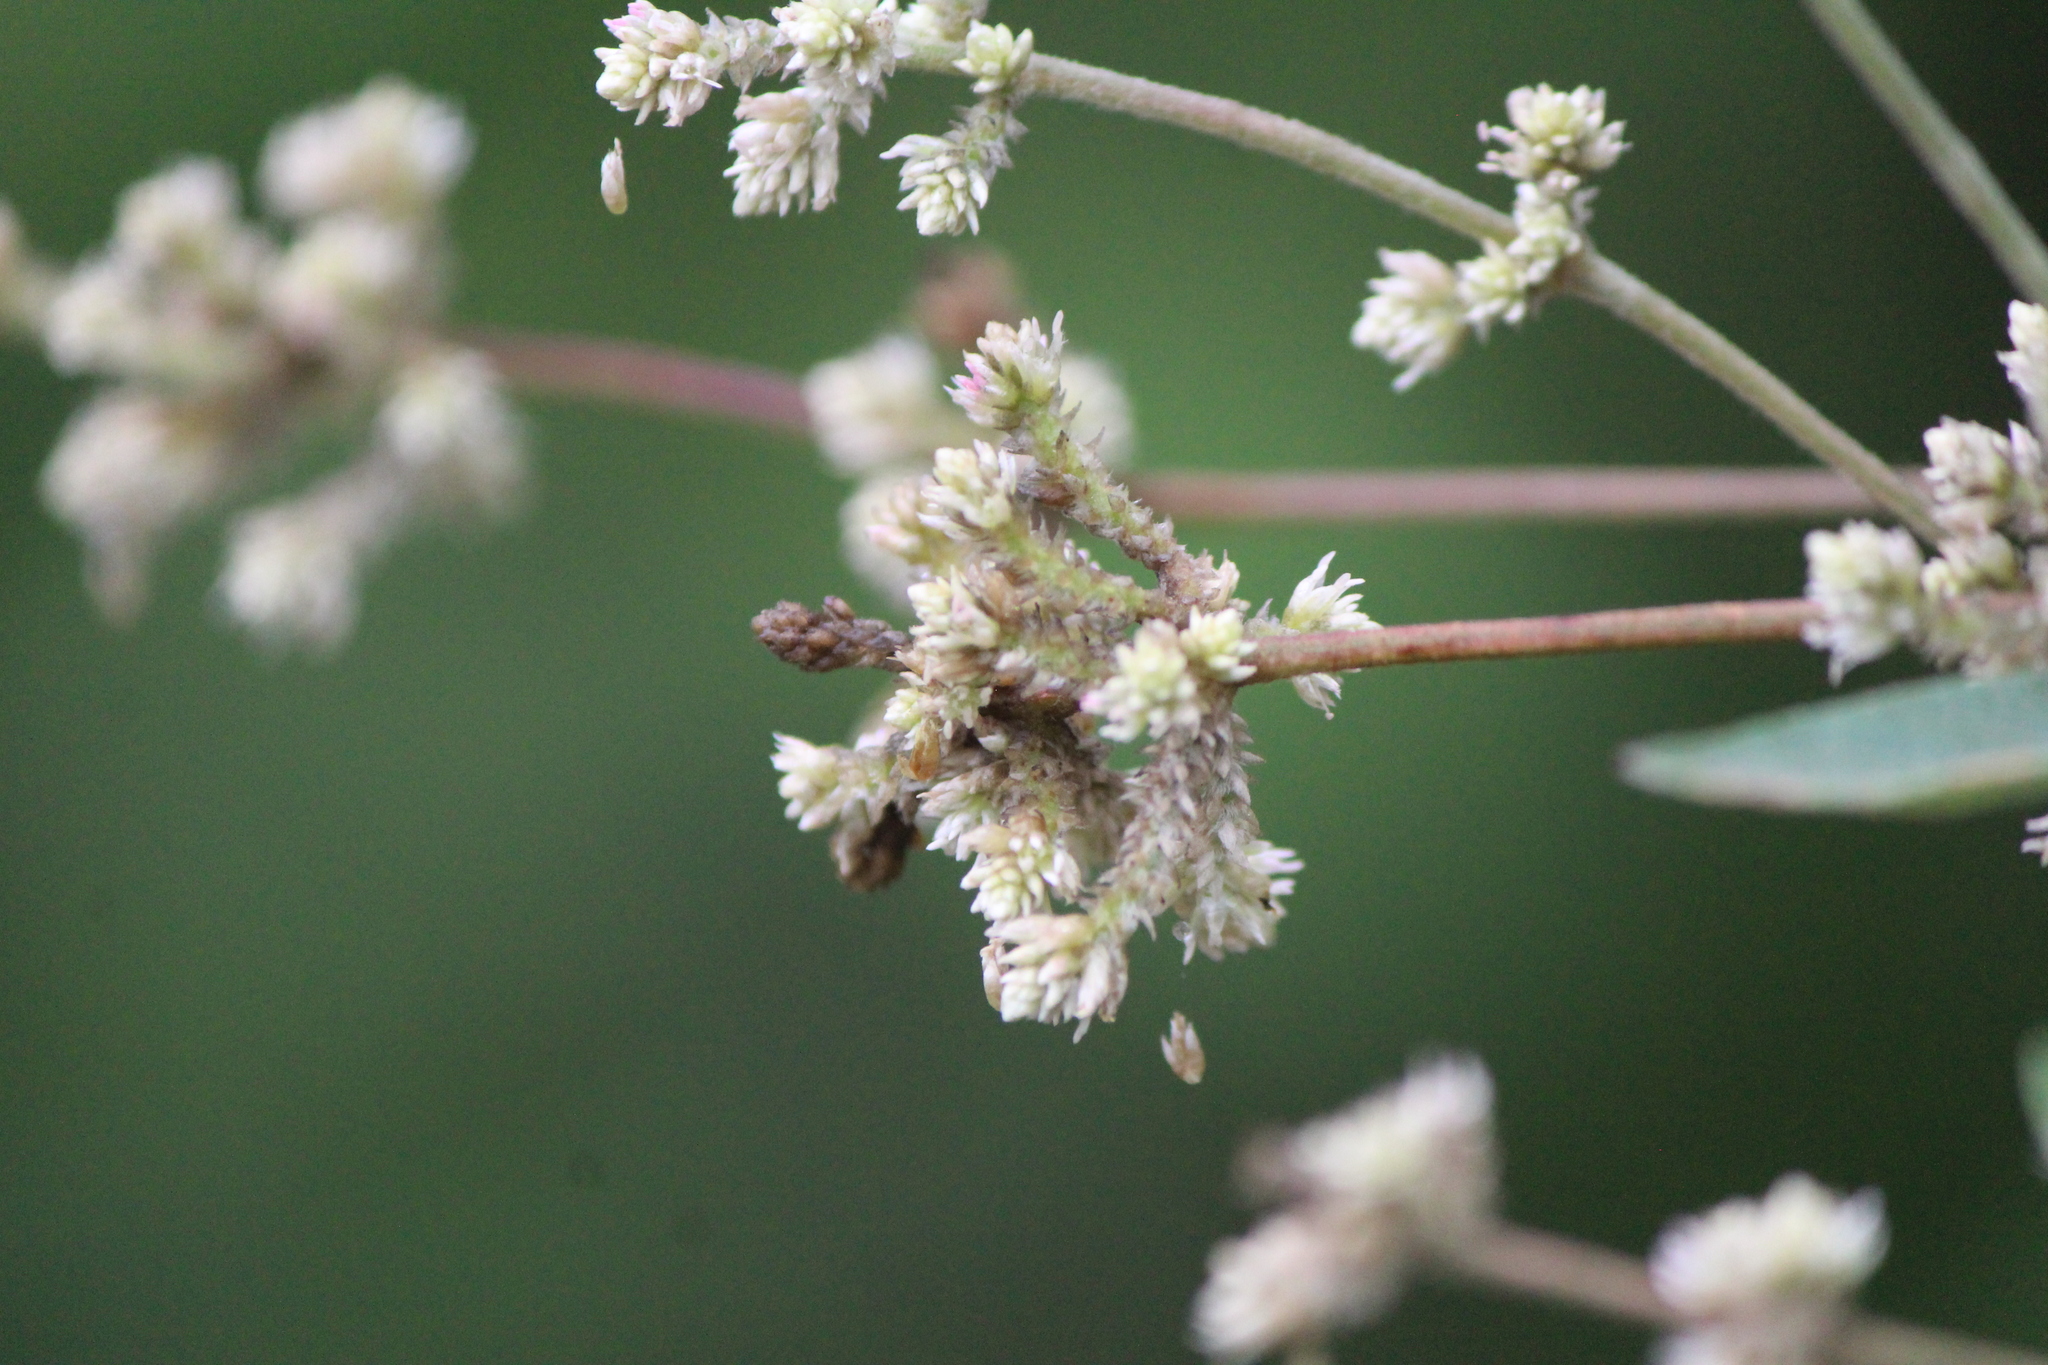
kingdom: Plantae
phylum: Tracheophyta
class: Magnoliopsida
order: Caryophyllales
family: Amaranthaceae
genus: Iresine
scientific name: Iresine schaffneri
